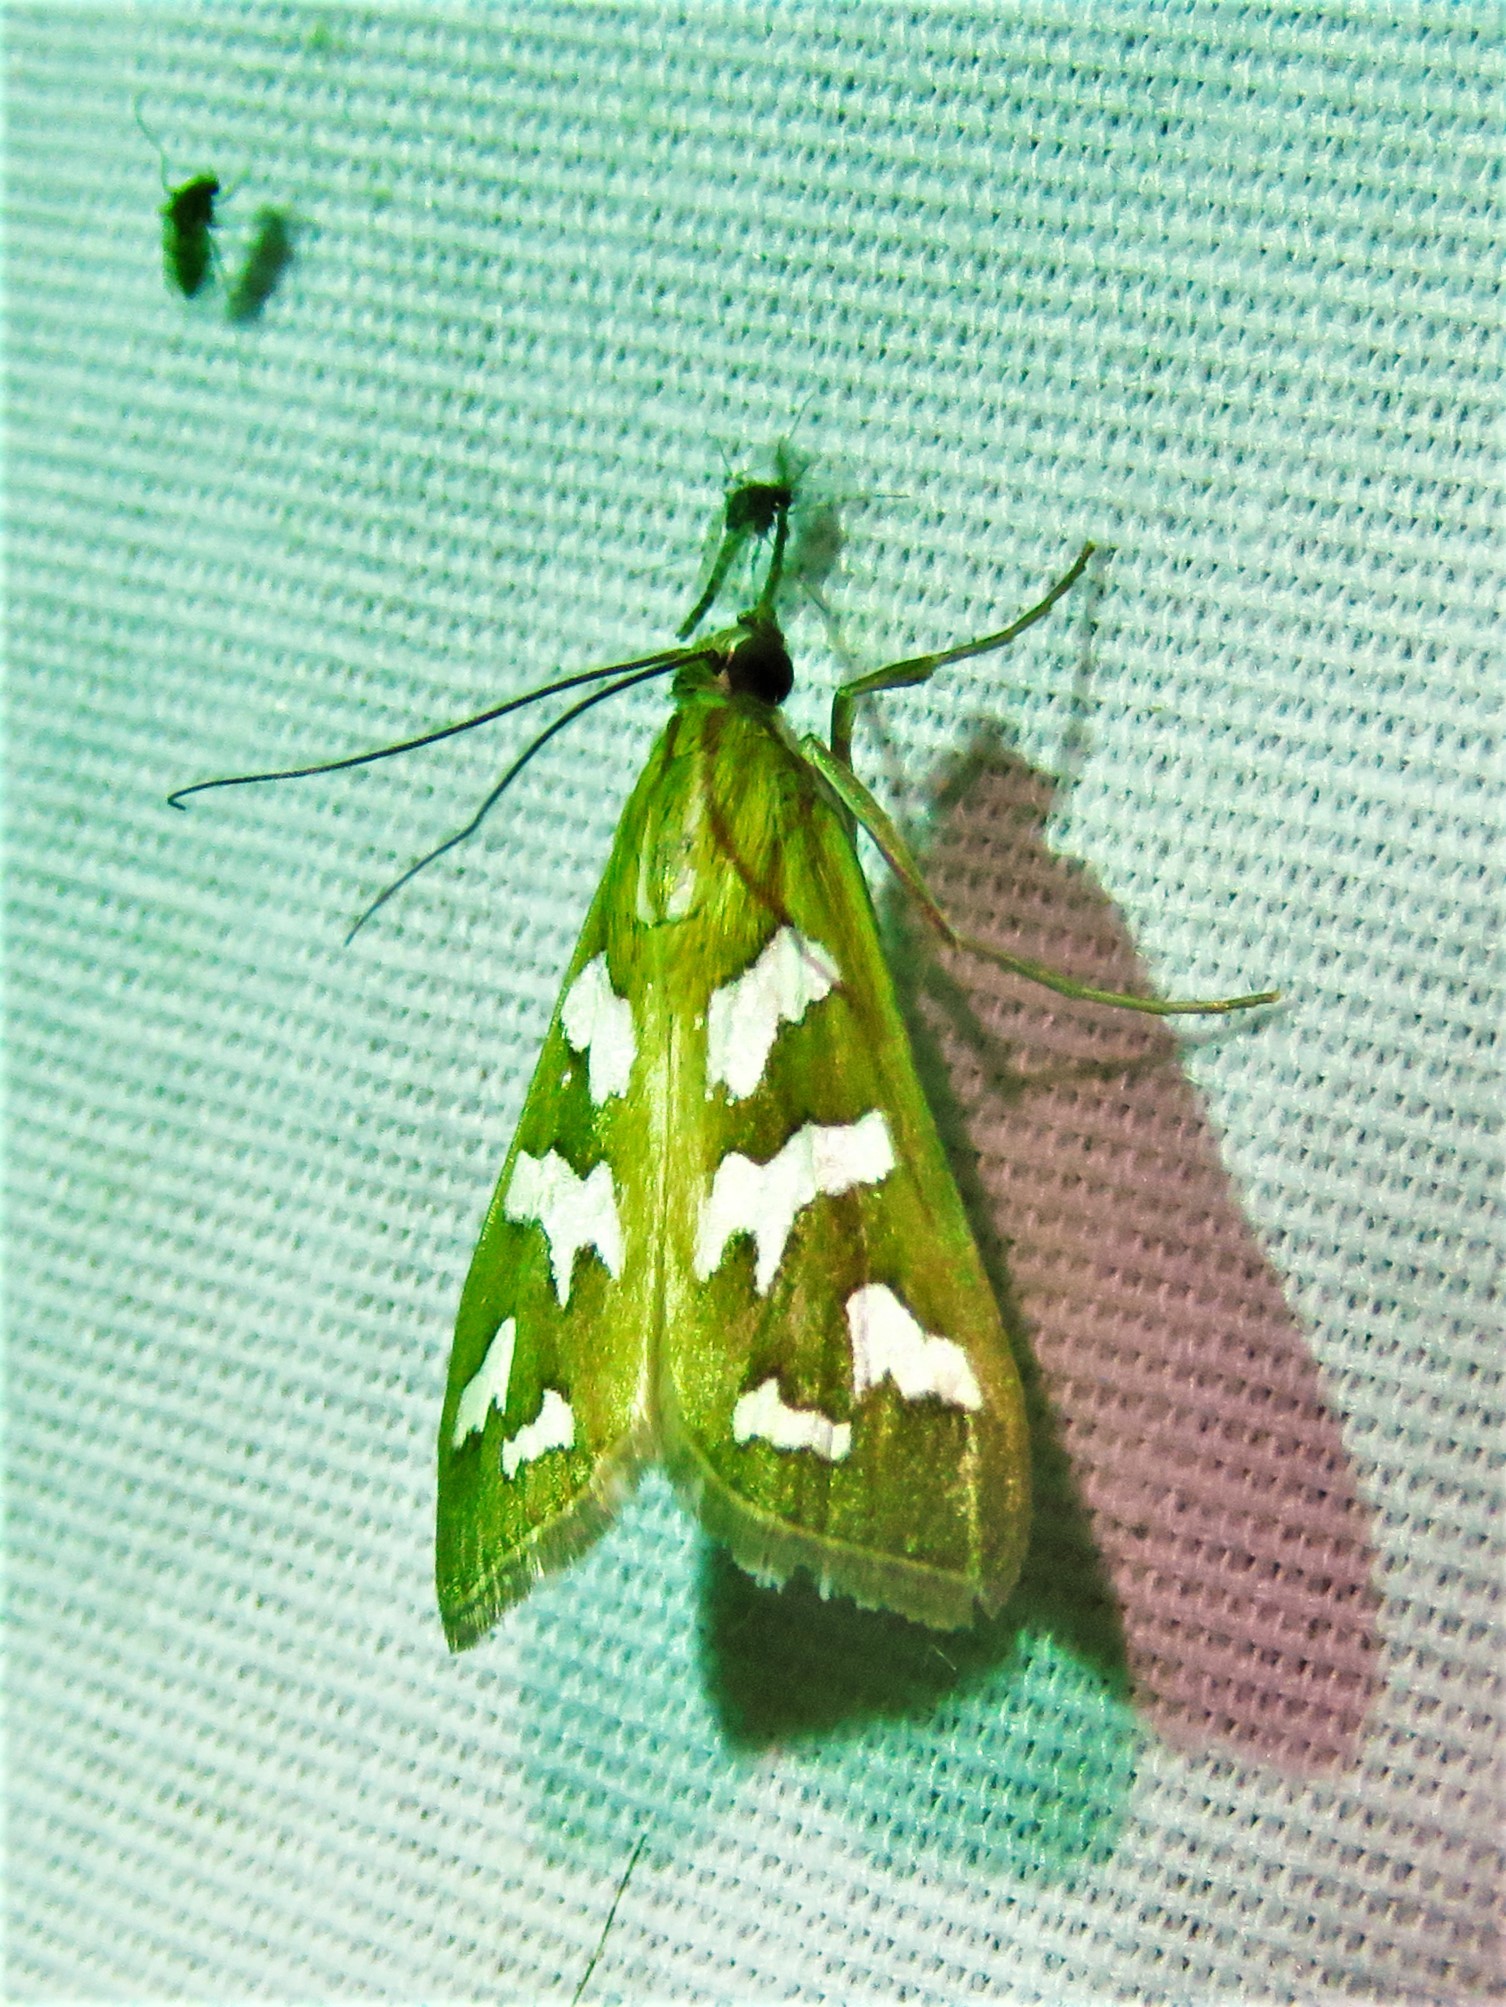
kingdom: Animalia
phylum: Arthropoda
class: Insecta
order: Lepidoptera
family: Crambidae
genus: Diastictis
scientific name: Diastictis fracturalis
